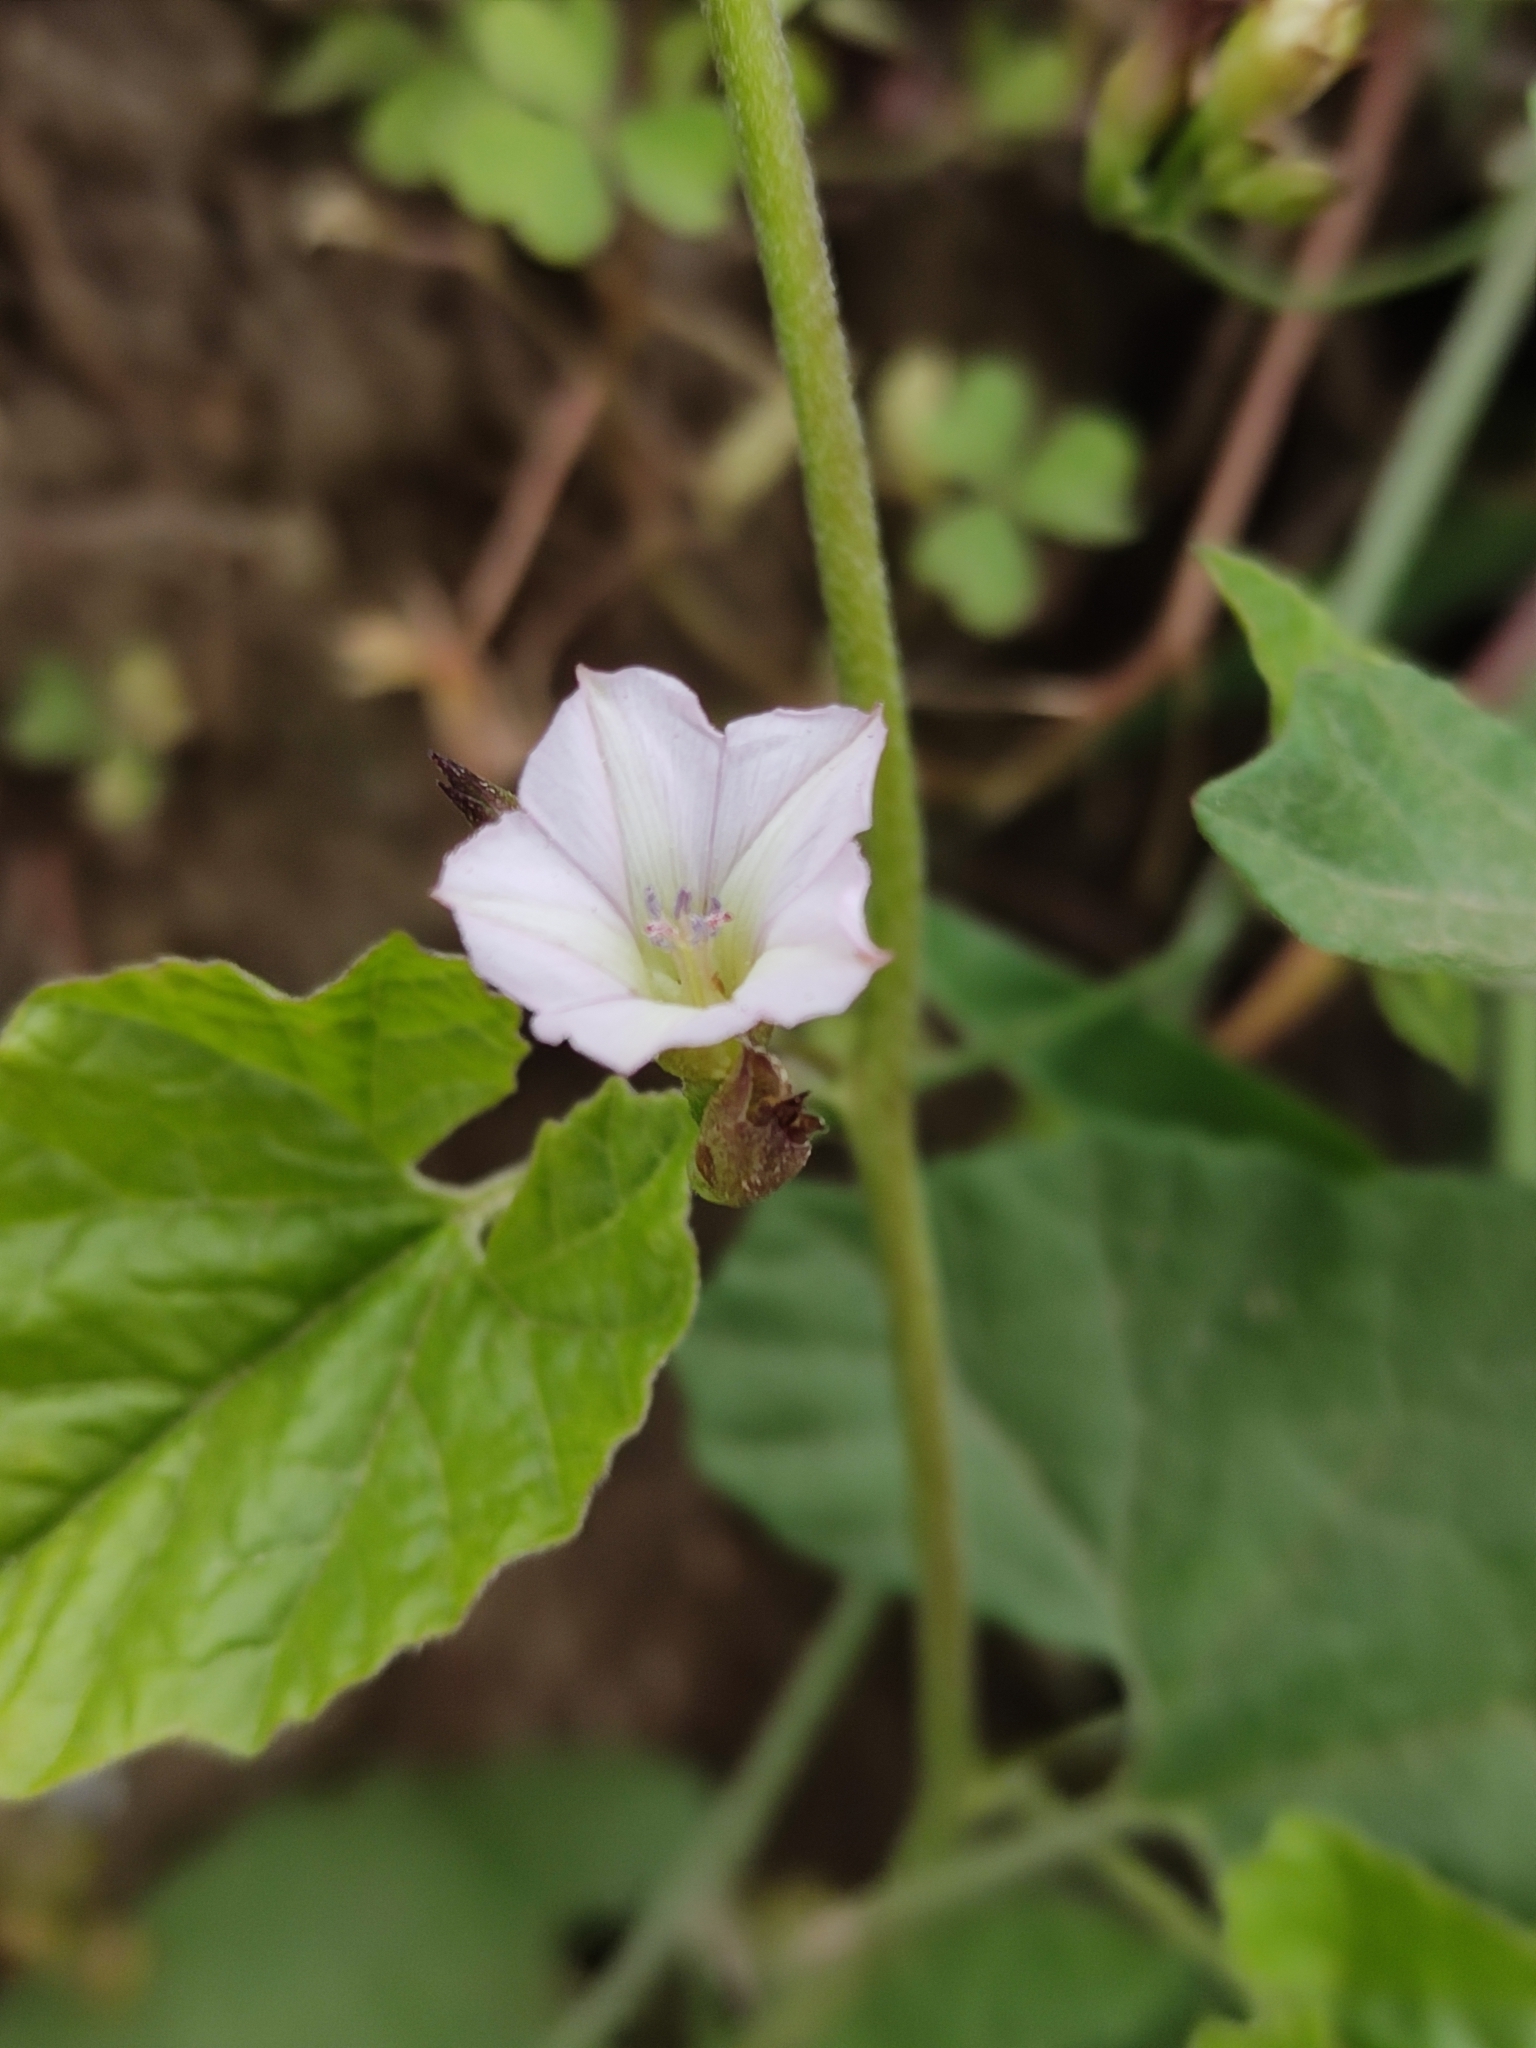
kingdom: Plantae
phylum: Tracheophyta
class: Magnoliopsida
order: Solanales
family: Convolvulaceae
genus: Convolvulus
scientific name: Convolvulus crenatifolius
